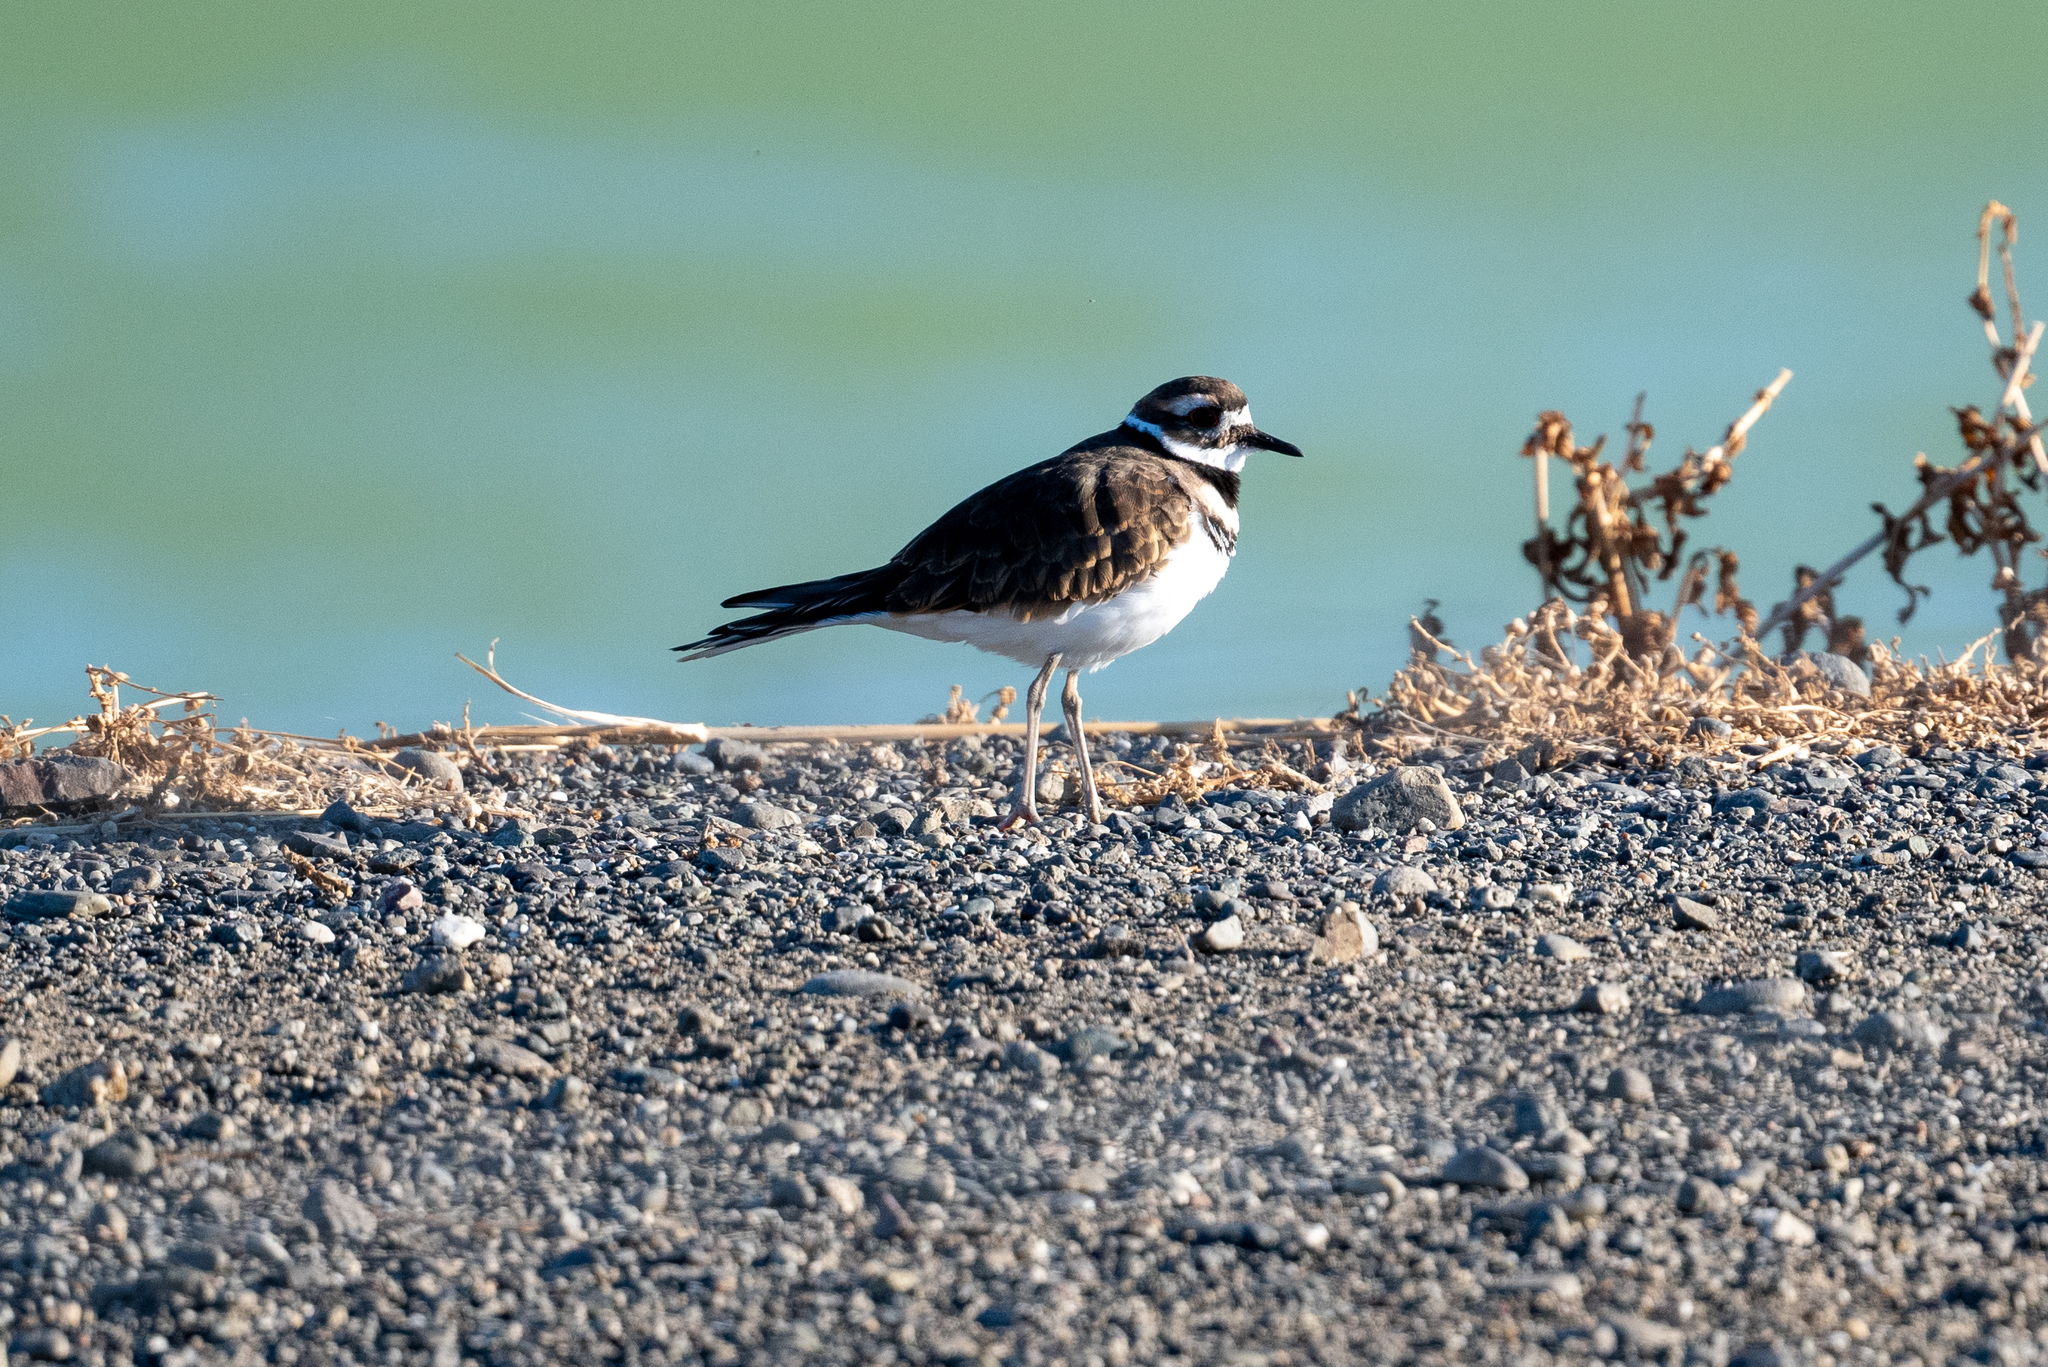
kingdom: Animalia
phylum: Chordata
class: Aves
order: Charadriiformes
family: Charadriidae
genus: Charadrius
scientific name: Charadrius vociferus
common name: Killdeer
